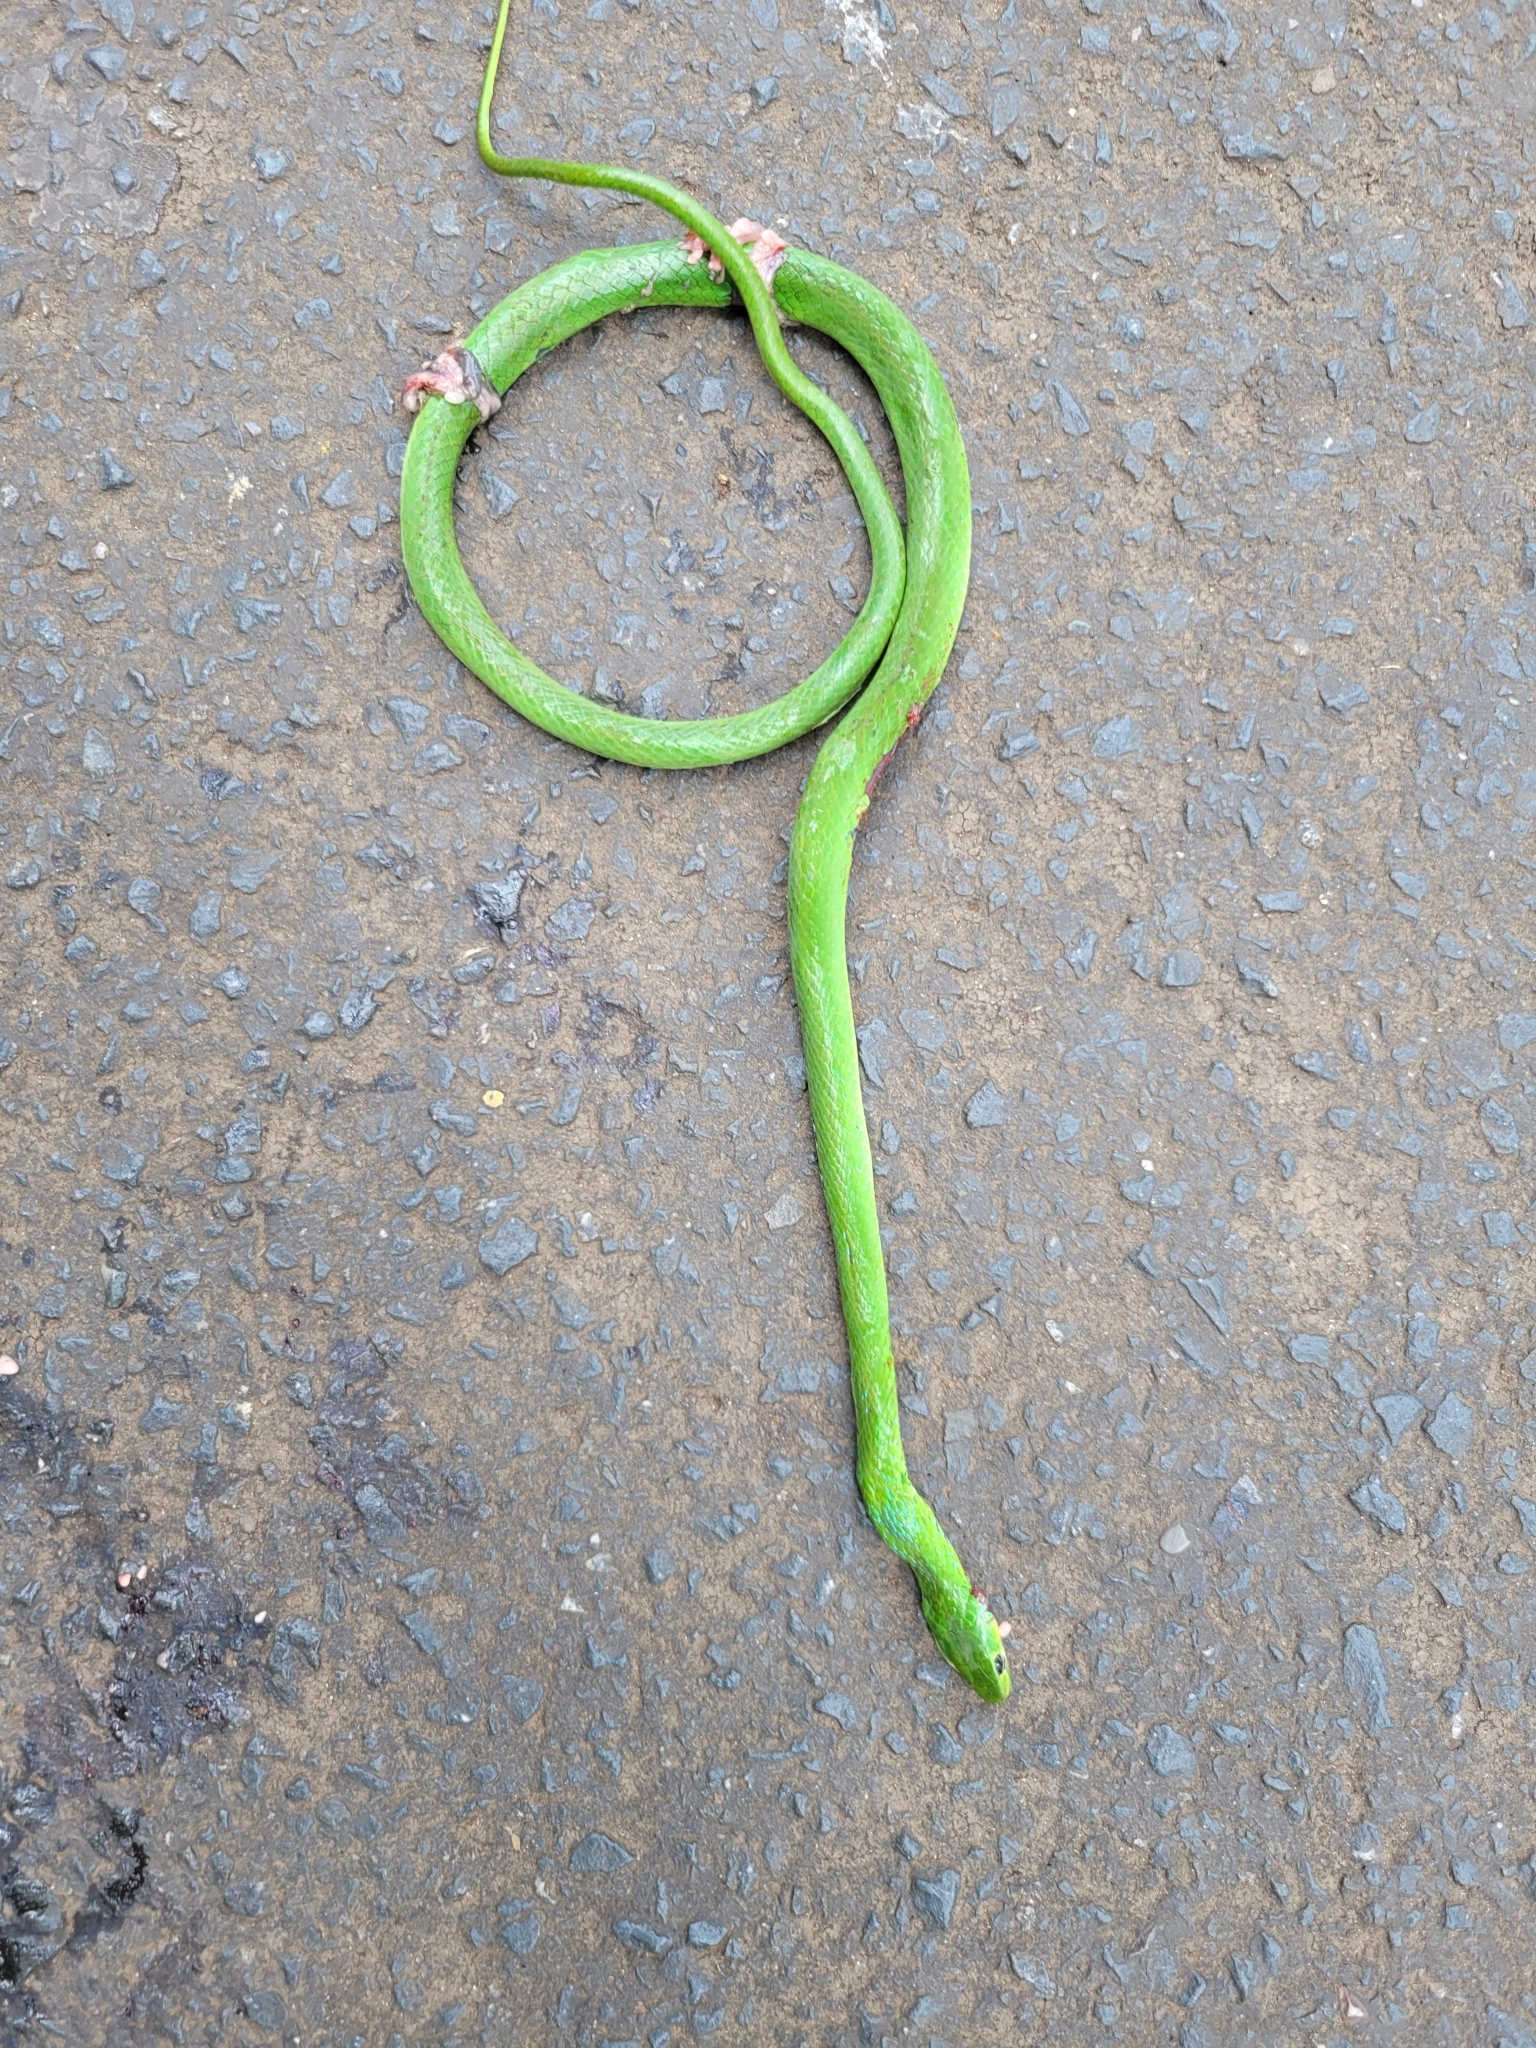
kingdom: Animalia
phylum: Chordata
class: Squamata
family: Colubridae
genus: Philothamnus
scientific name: Philothamnus hoplogaster
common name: Green water snake
